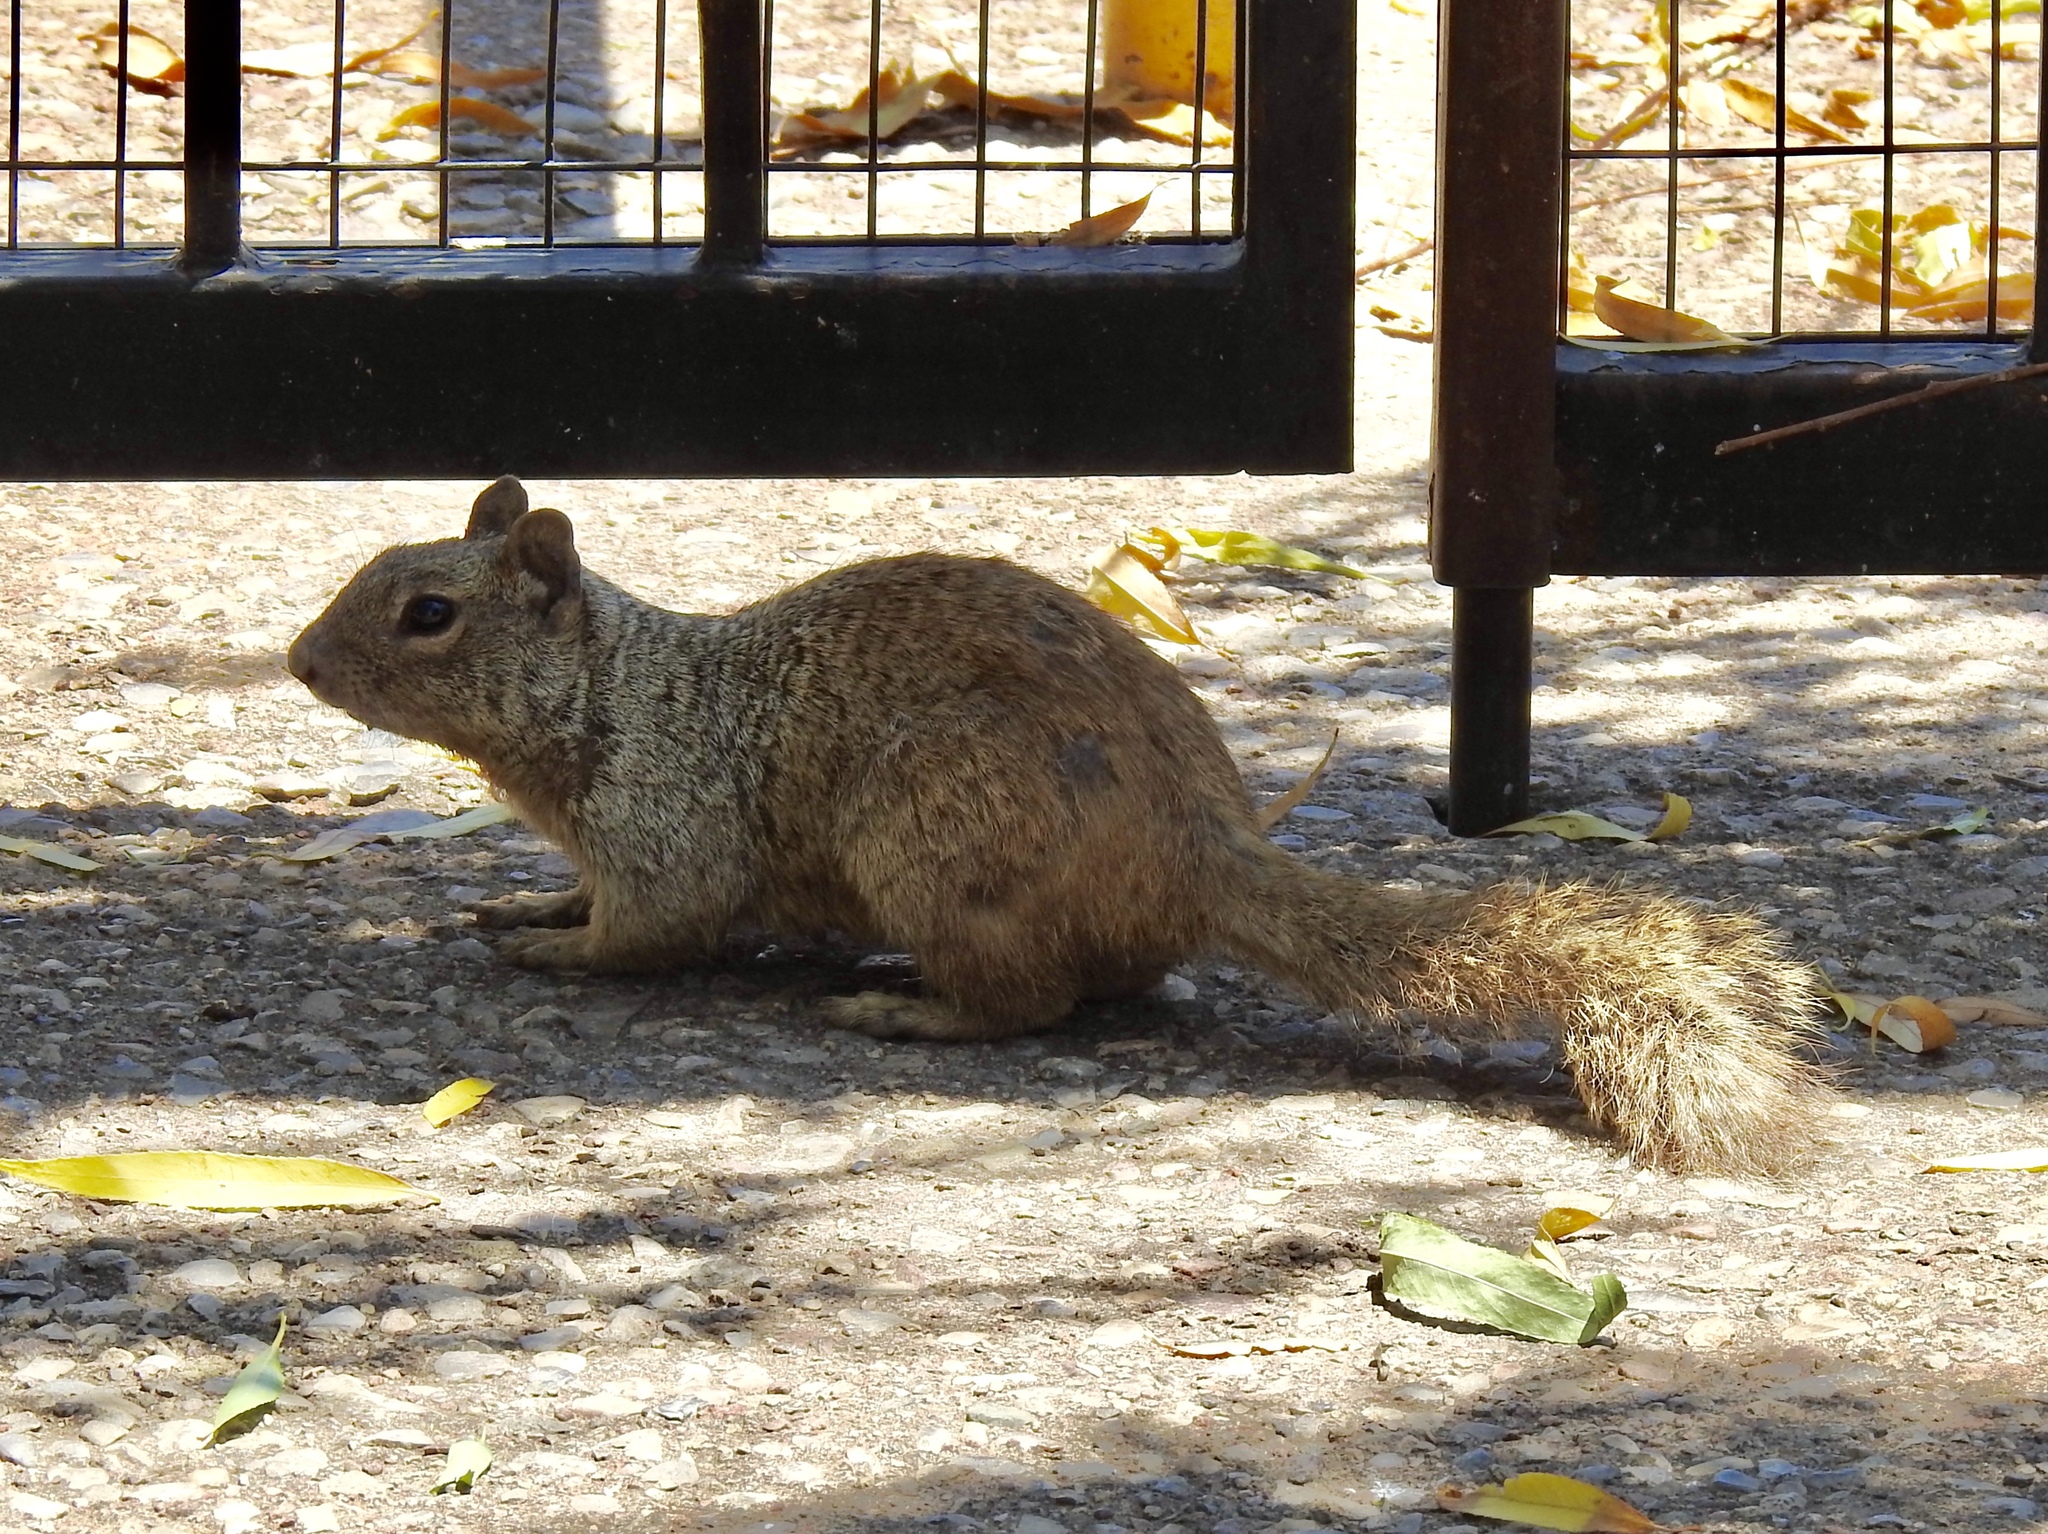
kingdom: Animalia
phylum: Chordata
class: Mammalia
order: Rodentia
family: Sciuridae
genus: Otospermophilus
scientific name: Otospermophilus variegatus
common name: Rock squirrel
